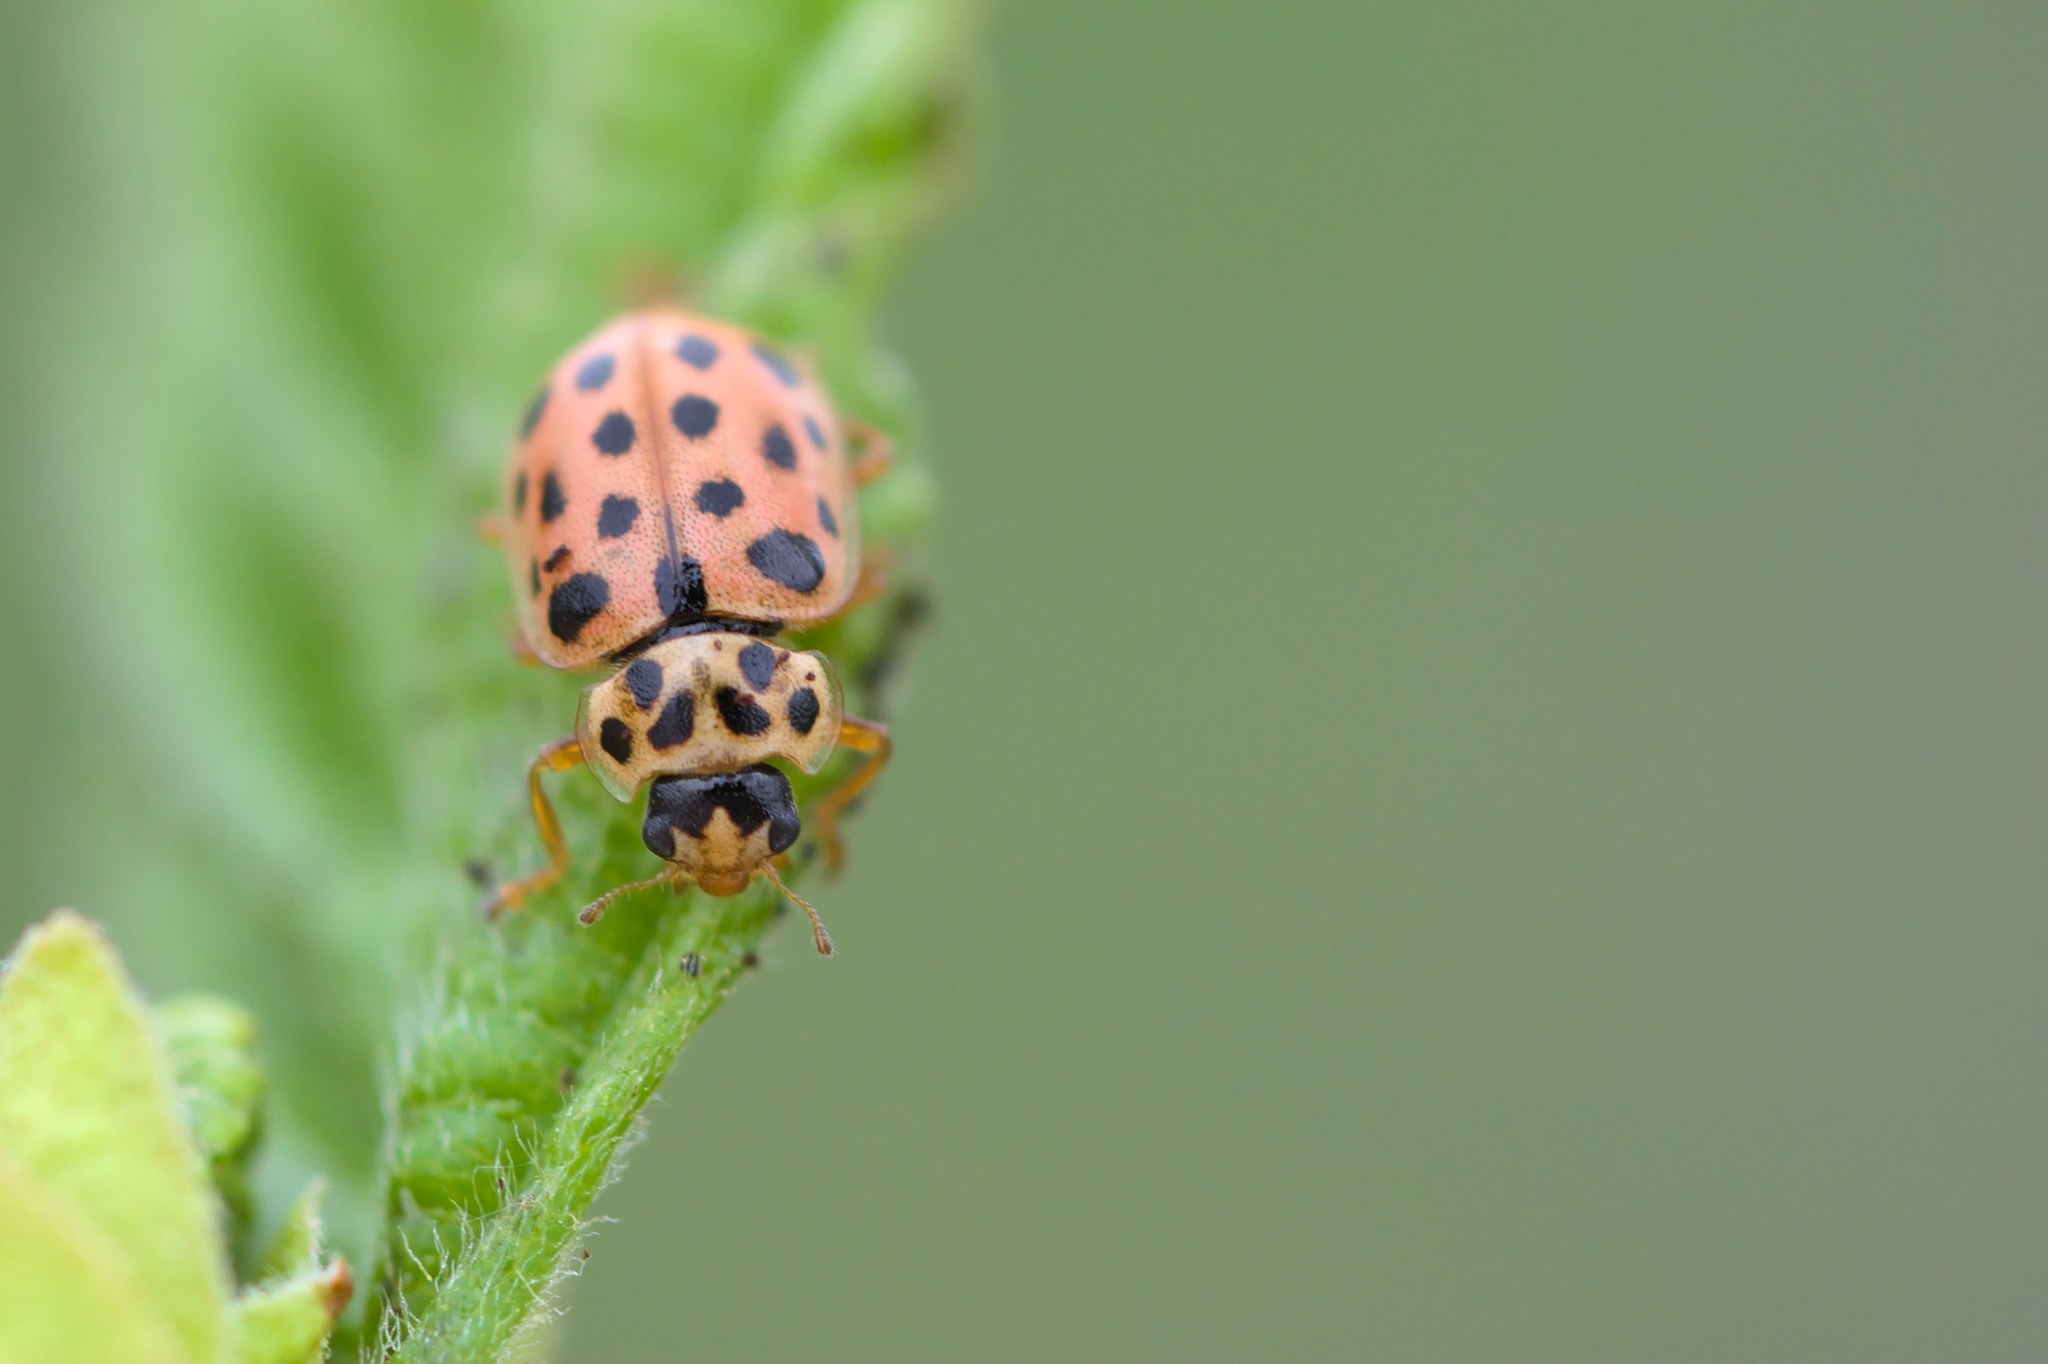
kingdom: Animalia
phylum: Arthropoda
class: Insecta
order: Coleoptera
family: Coccinellidae
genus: Anisosticta
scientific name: Anisosticta novemdecimpunctata
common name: Water ladybird
